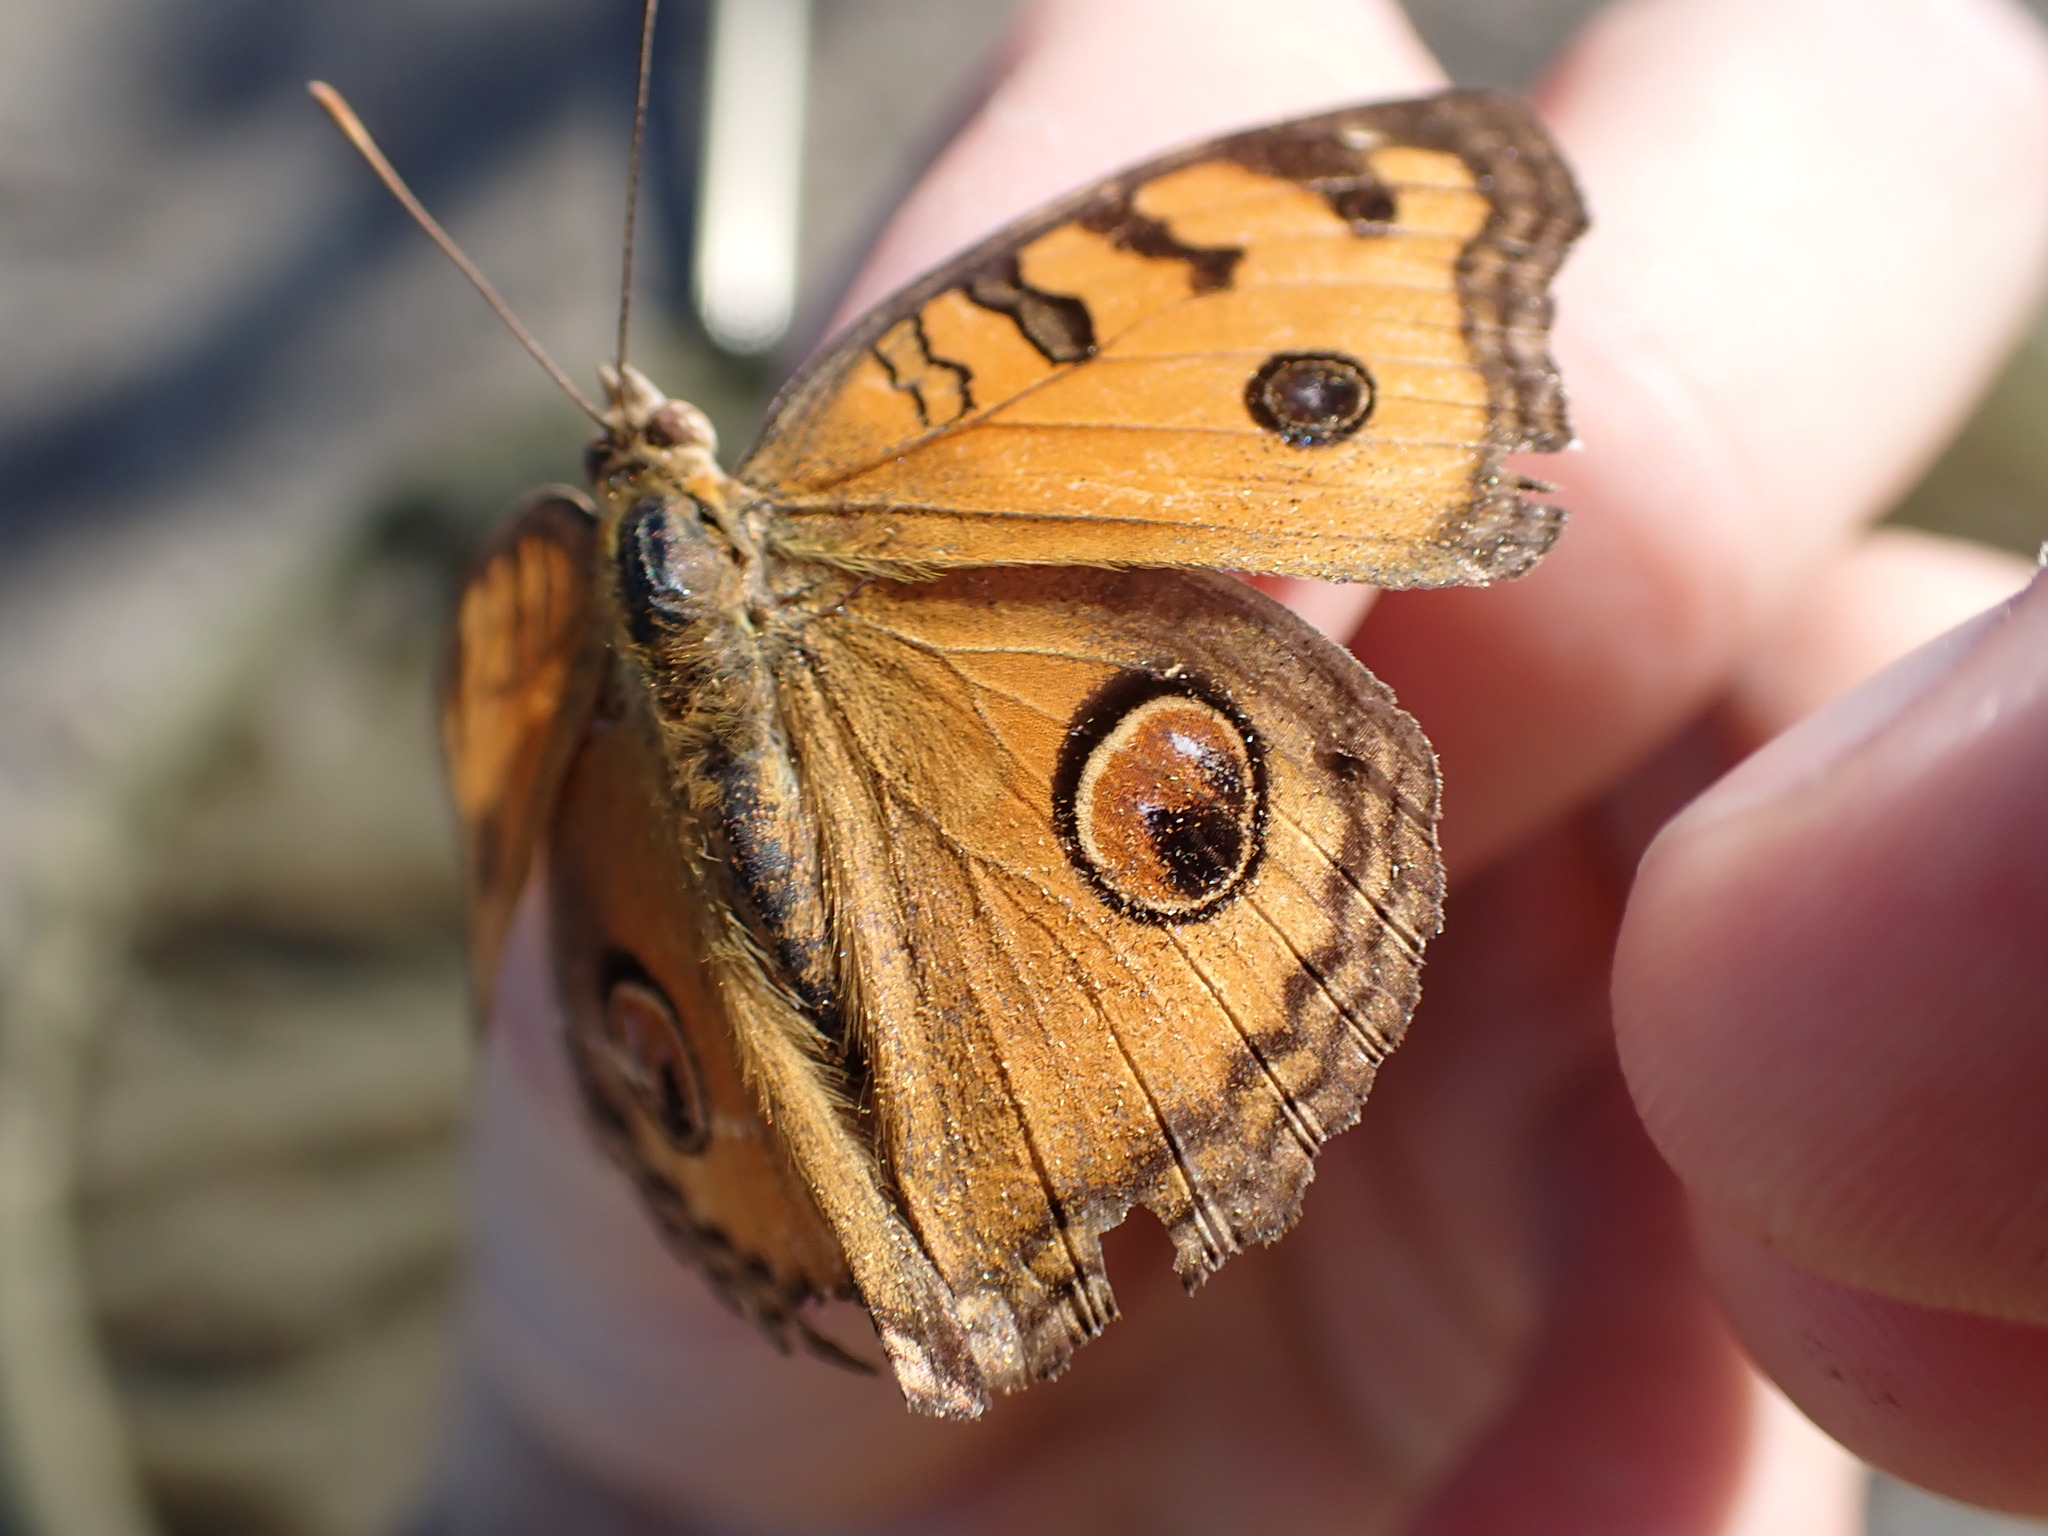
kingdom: Animalia
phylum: Arthropoda
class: Insecta
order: Lepidoptera
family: Nymphalidae
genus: Junonia
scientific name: Junonia almana
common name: Peacock pansy
